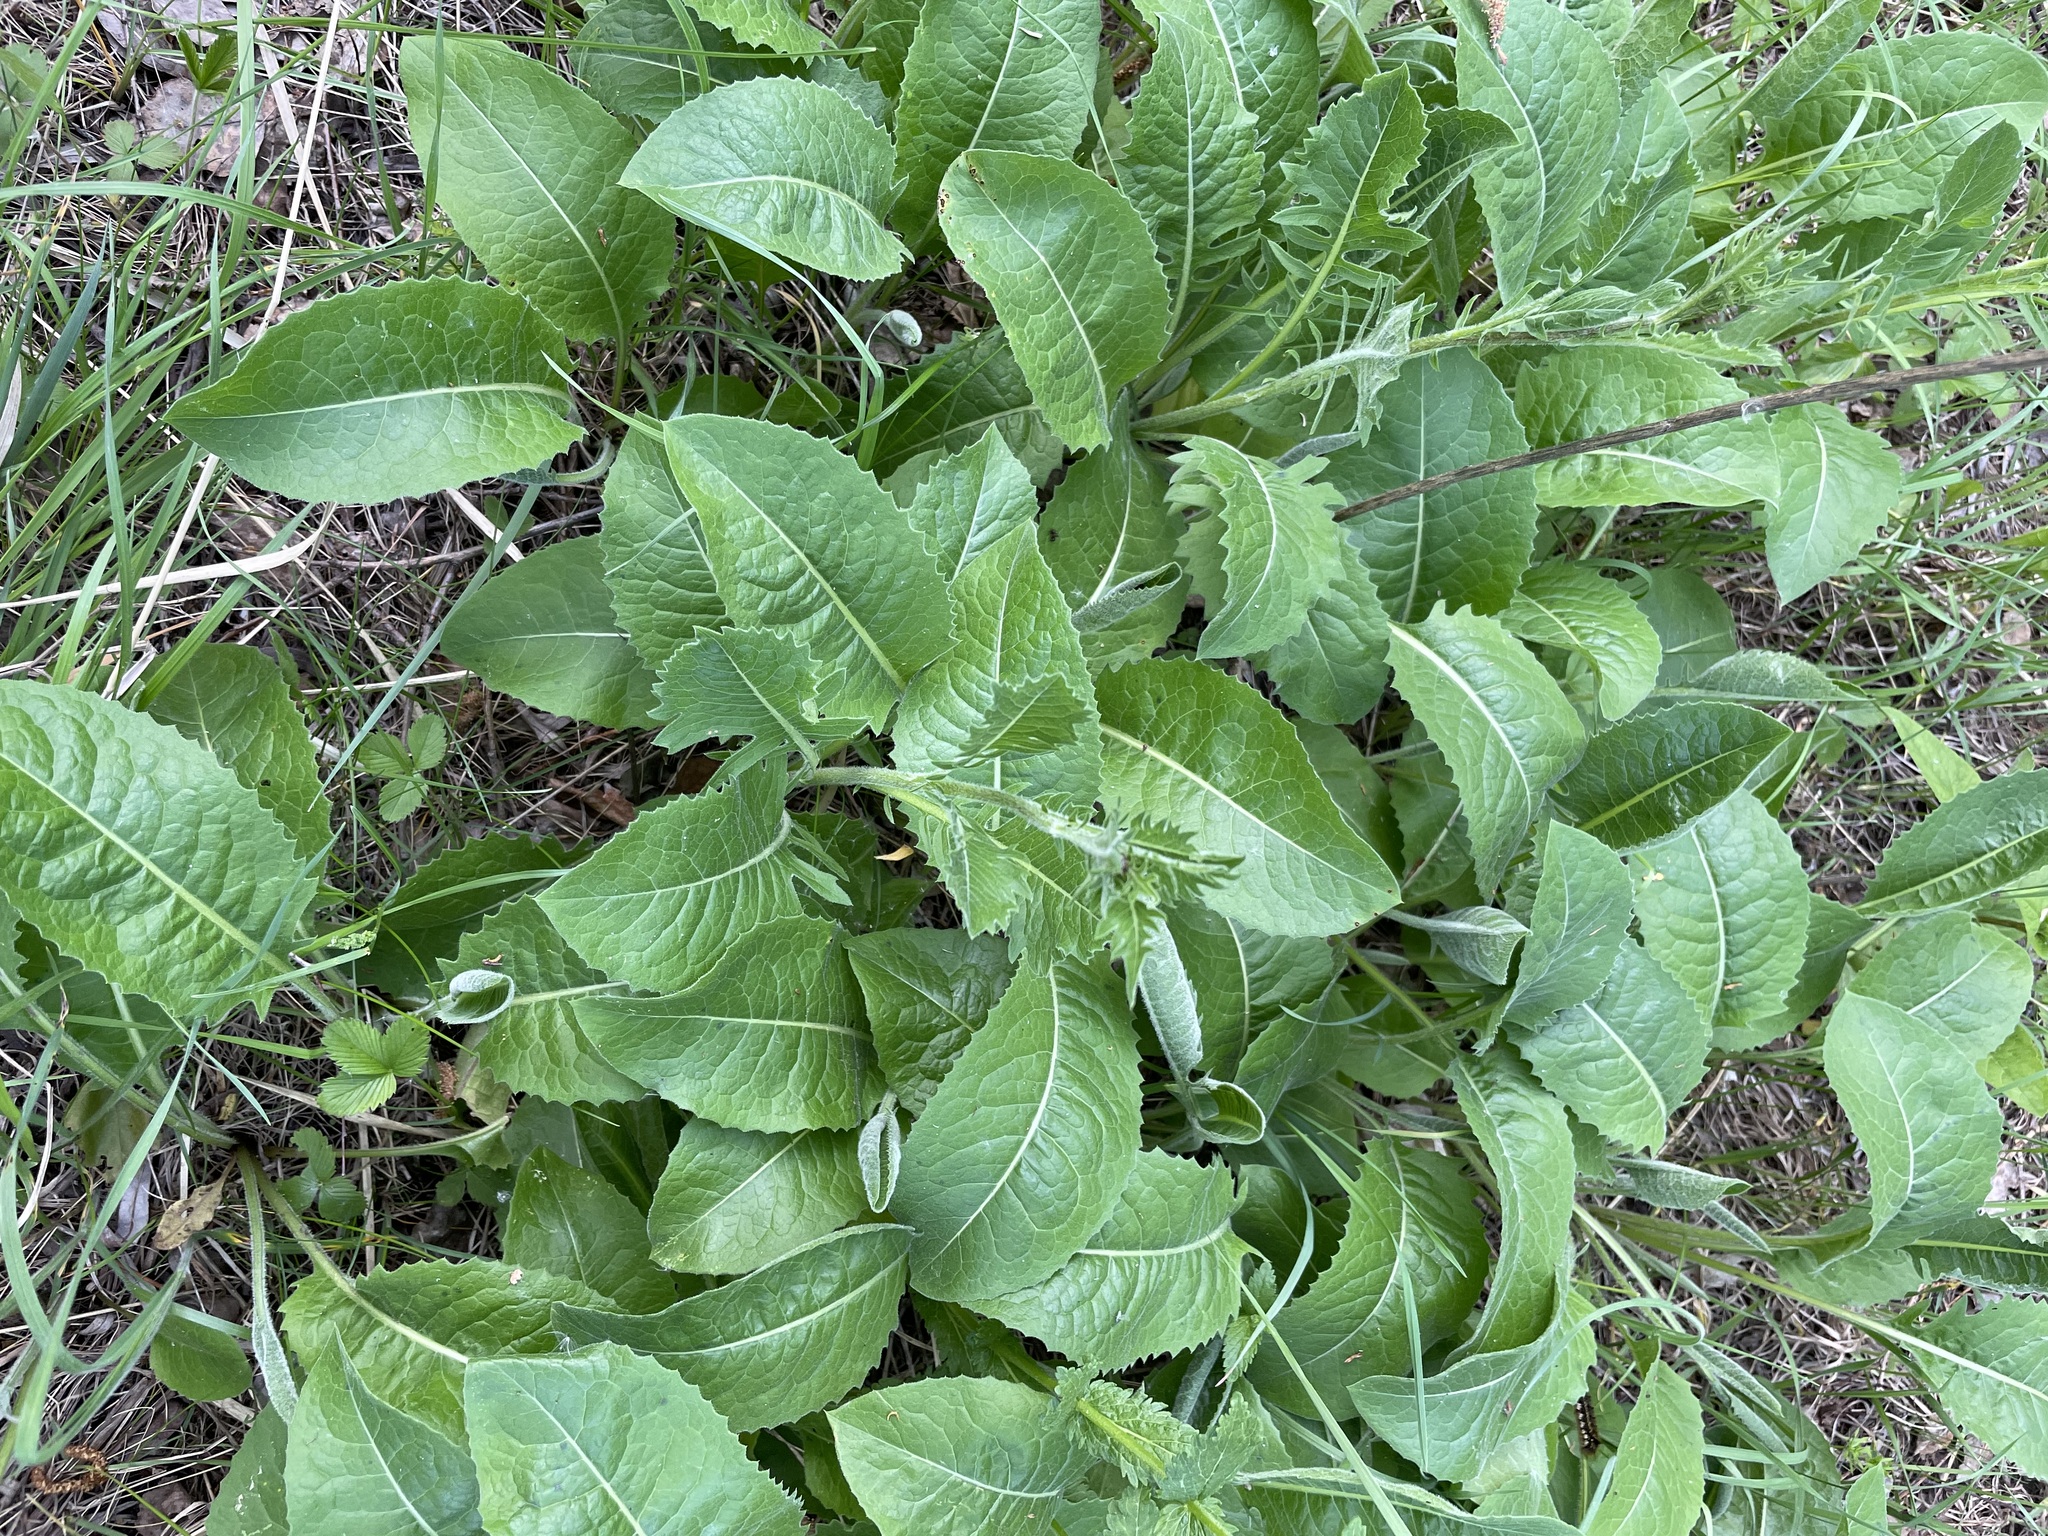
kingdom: Plantae
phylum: Tracheophyta
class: Magnoliopsida
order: Asterales
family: Asteraceae
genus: Klasea
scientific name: Klasea lycopifolia
